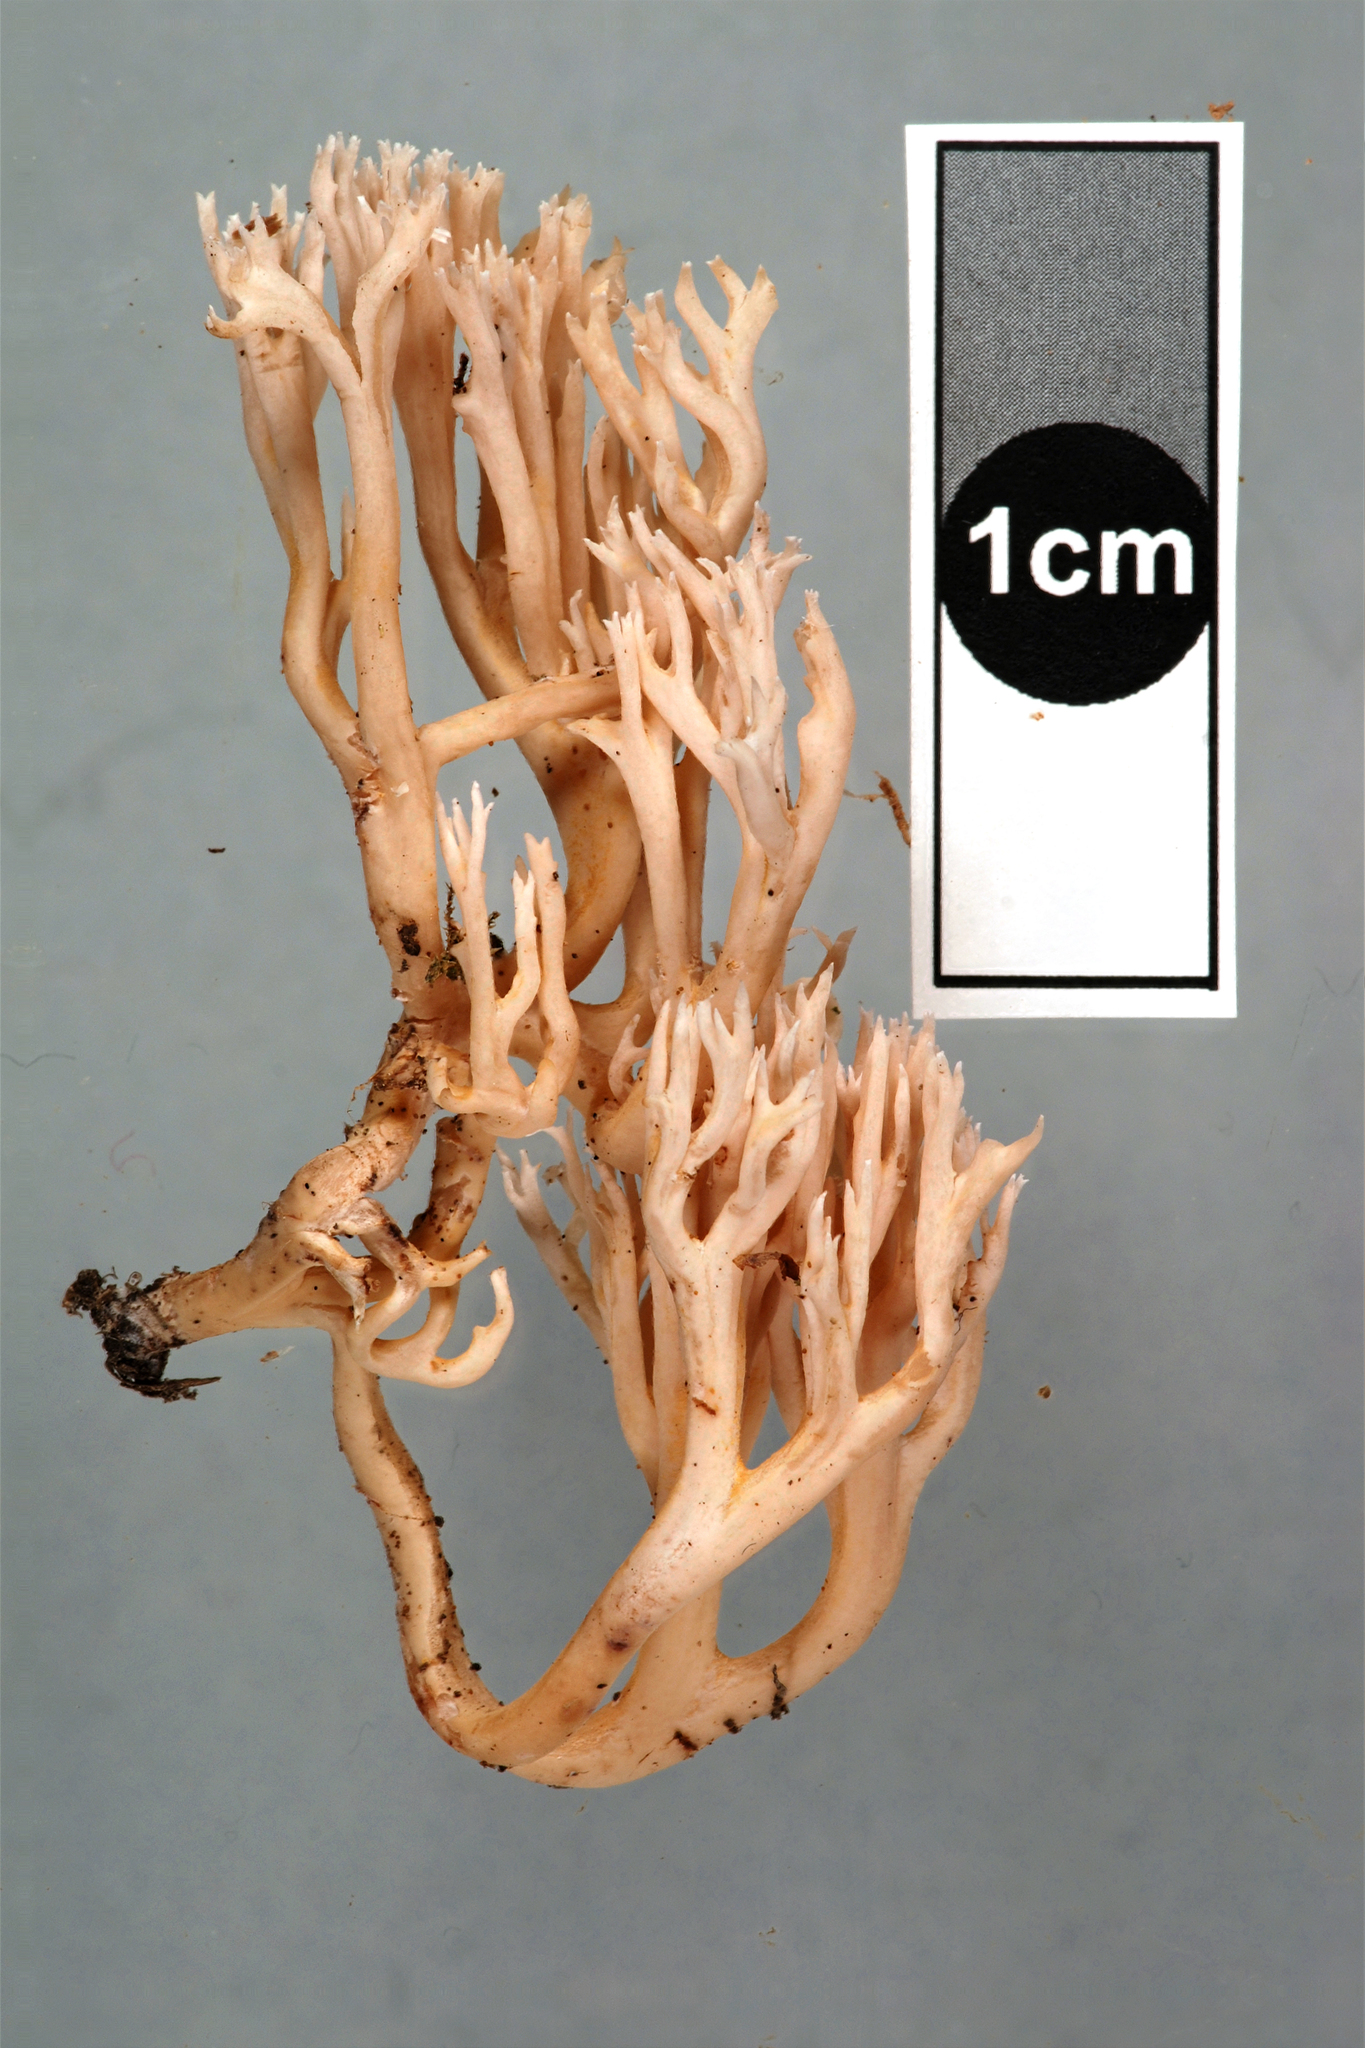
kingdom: Fungi
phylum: Basidiomycota
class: Agaricomycetes
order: Gomphales
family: Gomphaceae
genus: Ramaria
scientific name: Ramaria sclerocarnosa
